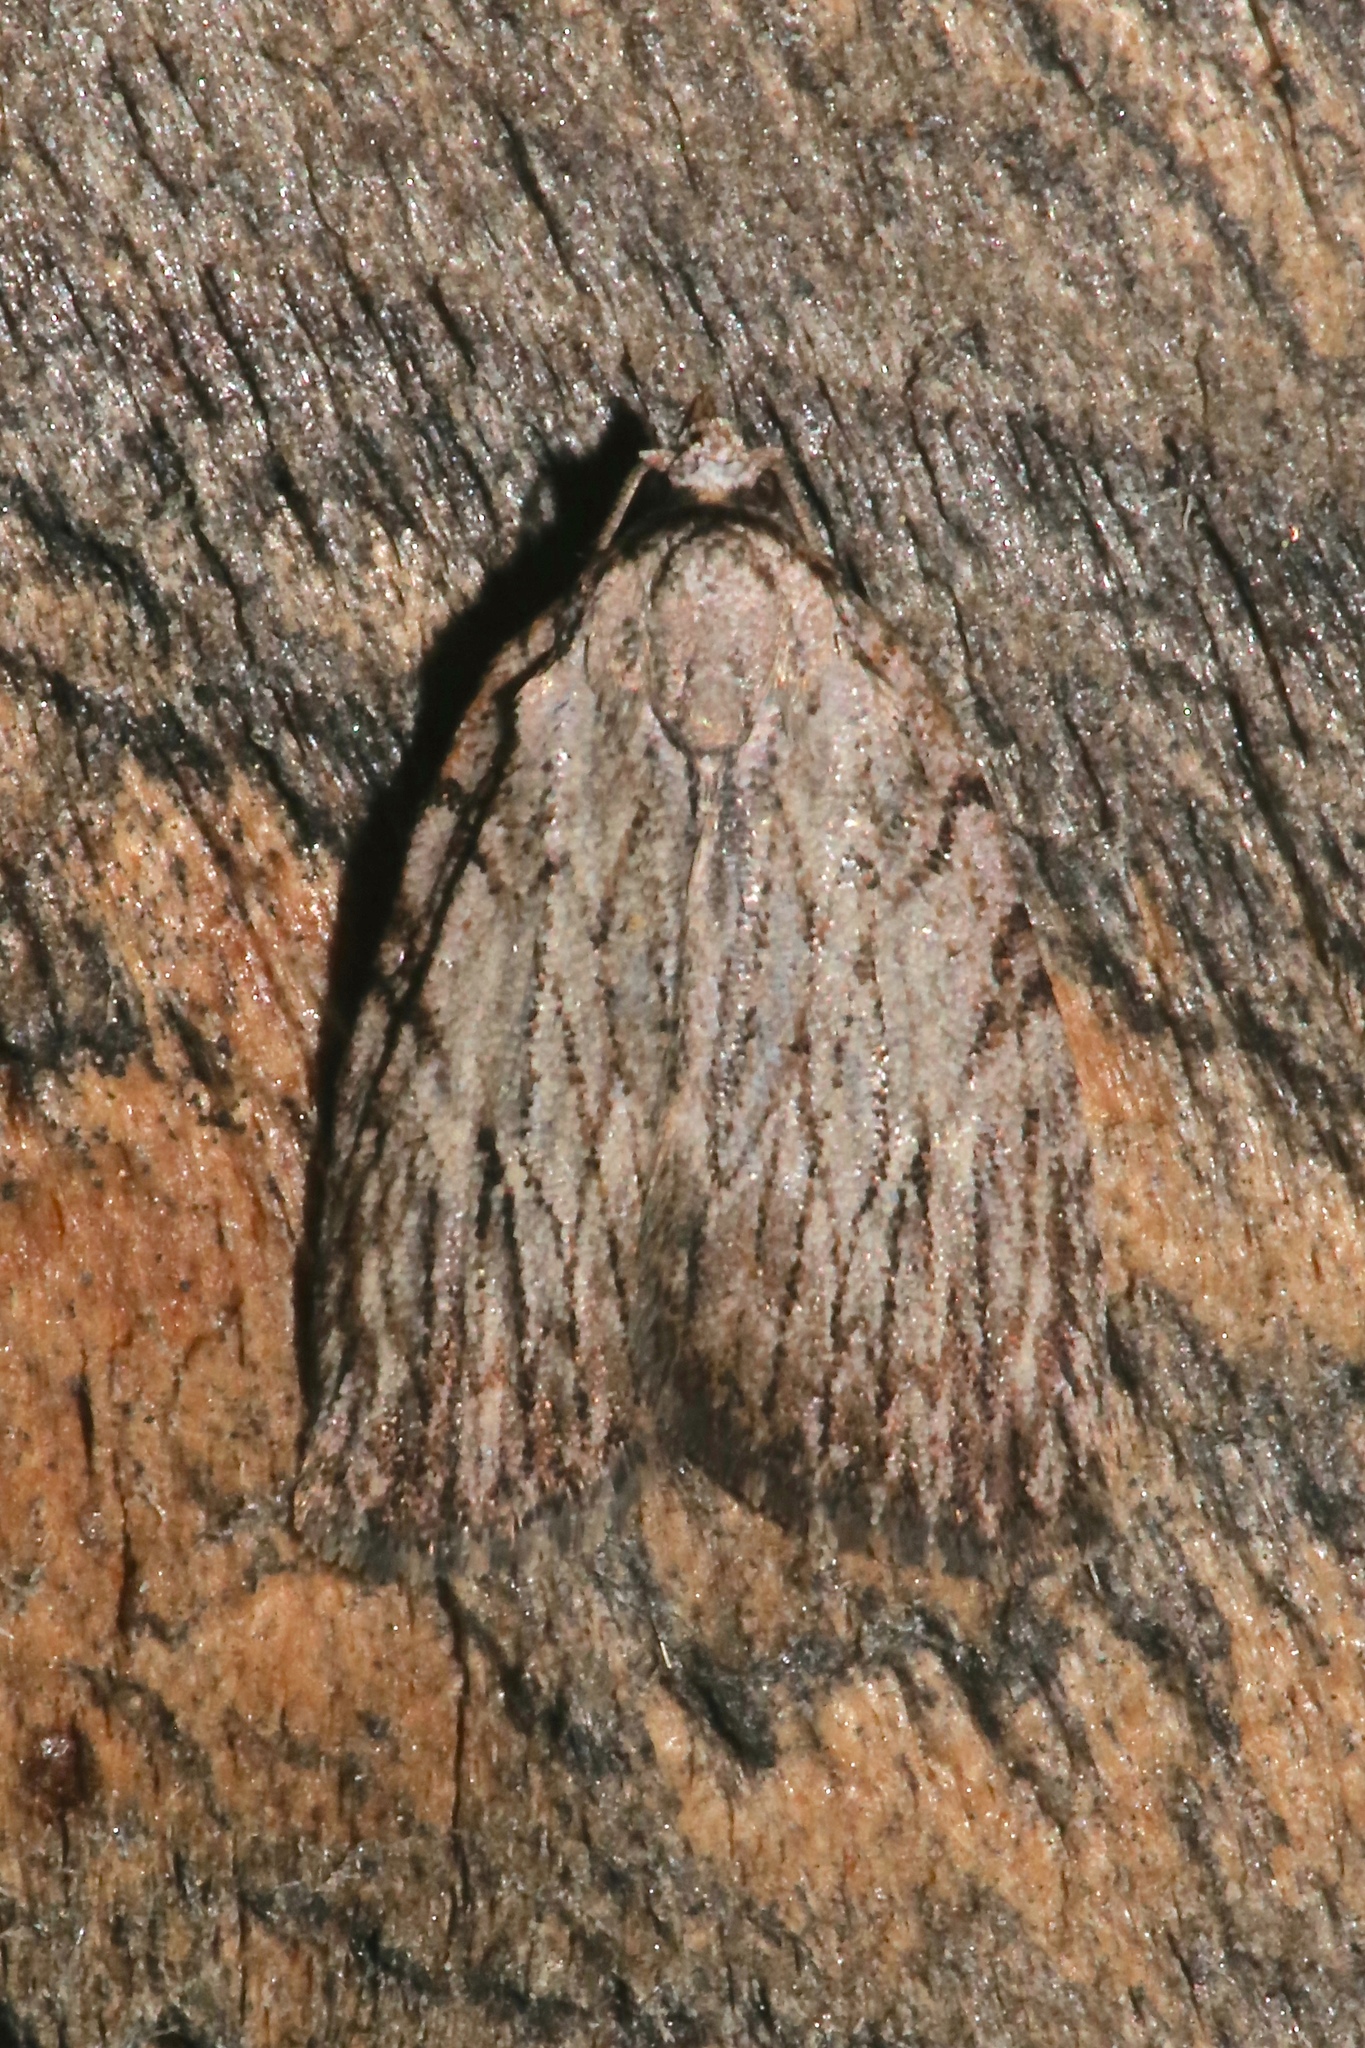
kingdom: Animalia
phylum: Arthropoda
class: Insecta
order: Lepidoptera
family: Noctuidae
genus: Balsa
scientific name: Balsa tristrigella
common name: Three-lined balsa moth
